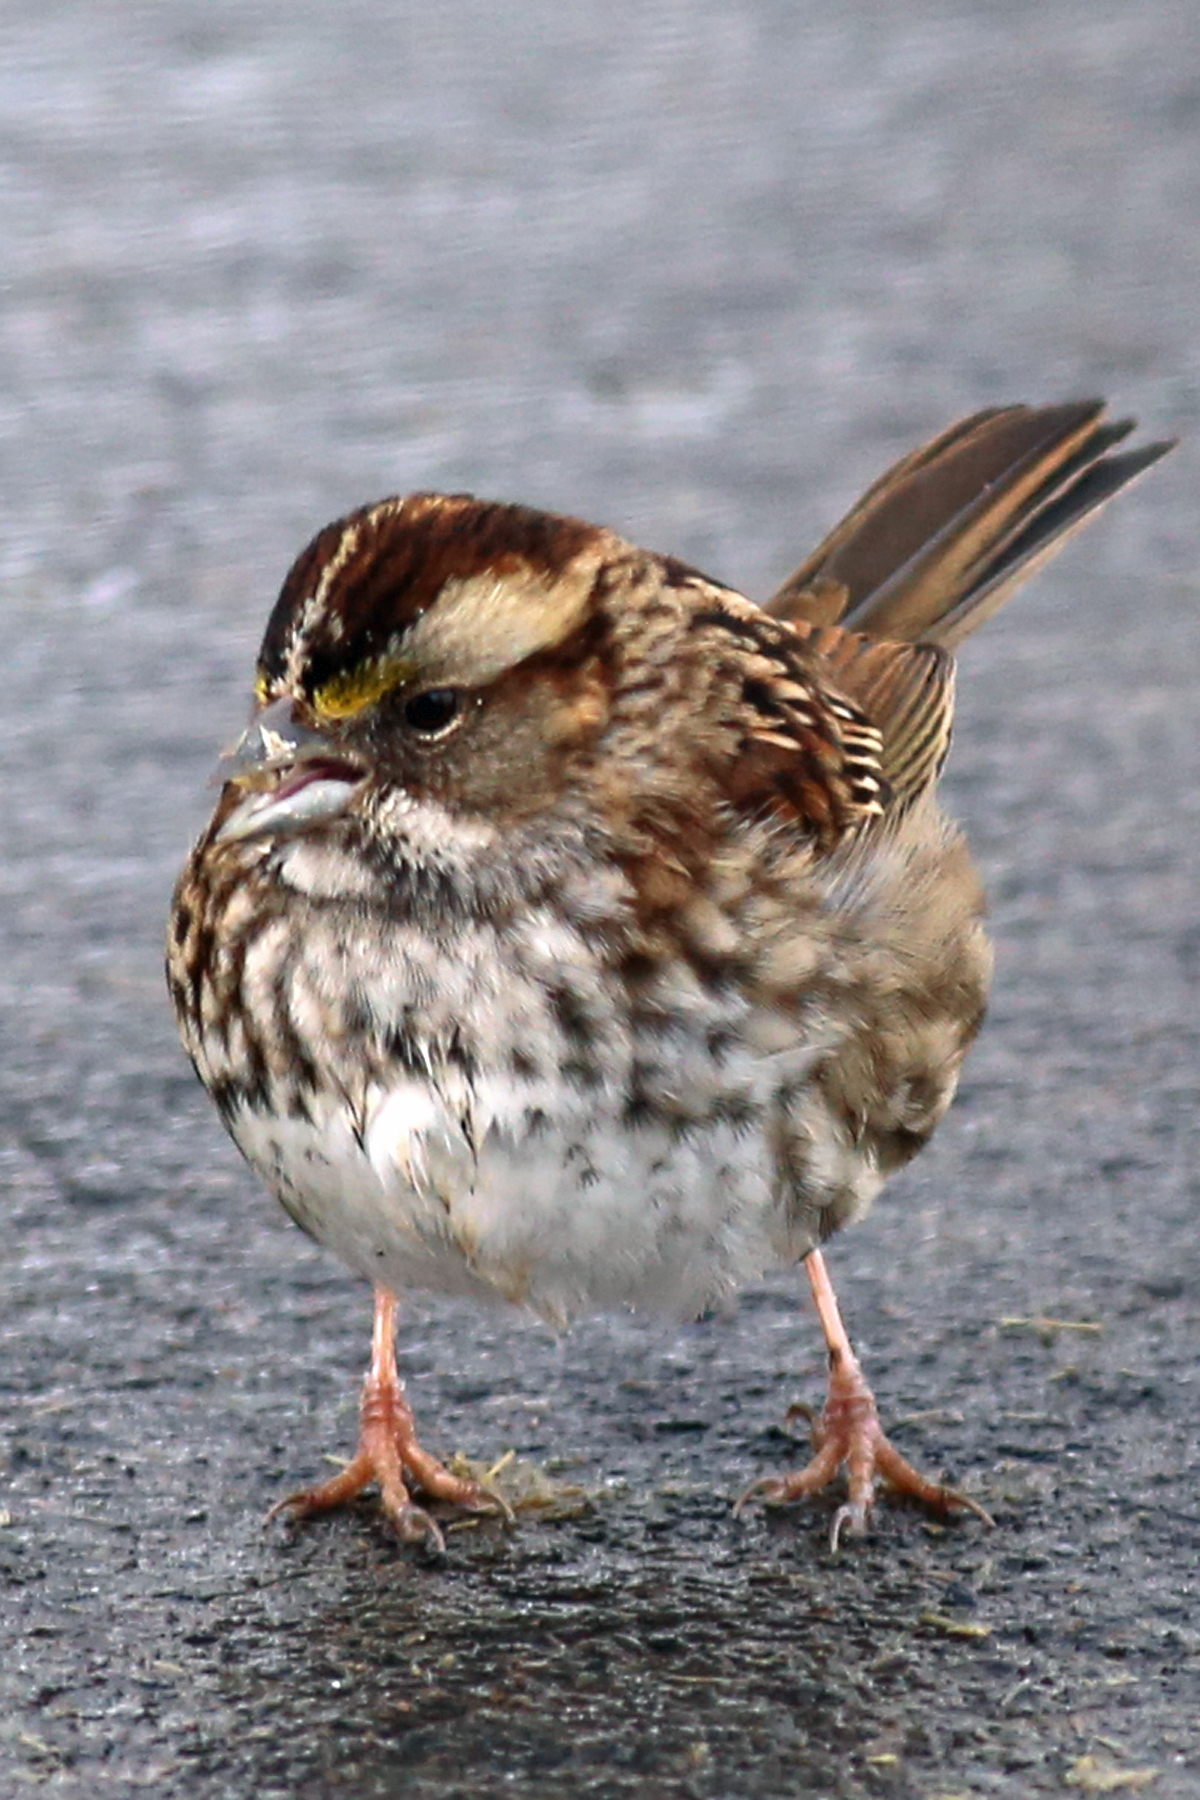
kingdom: Animalia
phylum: Chordata
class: Aves
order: Passeriformes
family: Passerellidae
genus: Zonotrichia
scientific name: Zonotrichia albicollis
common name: White-throated sparrow
